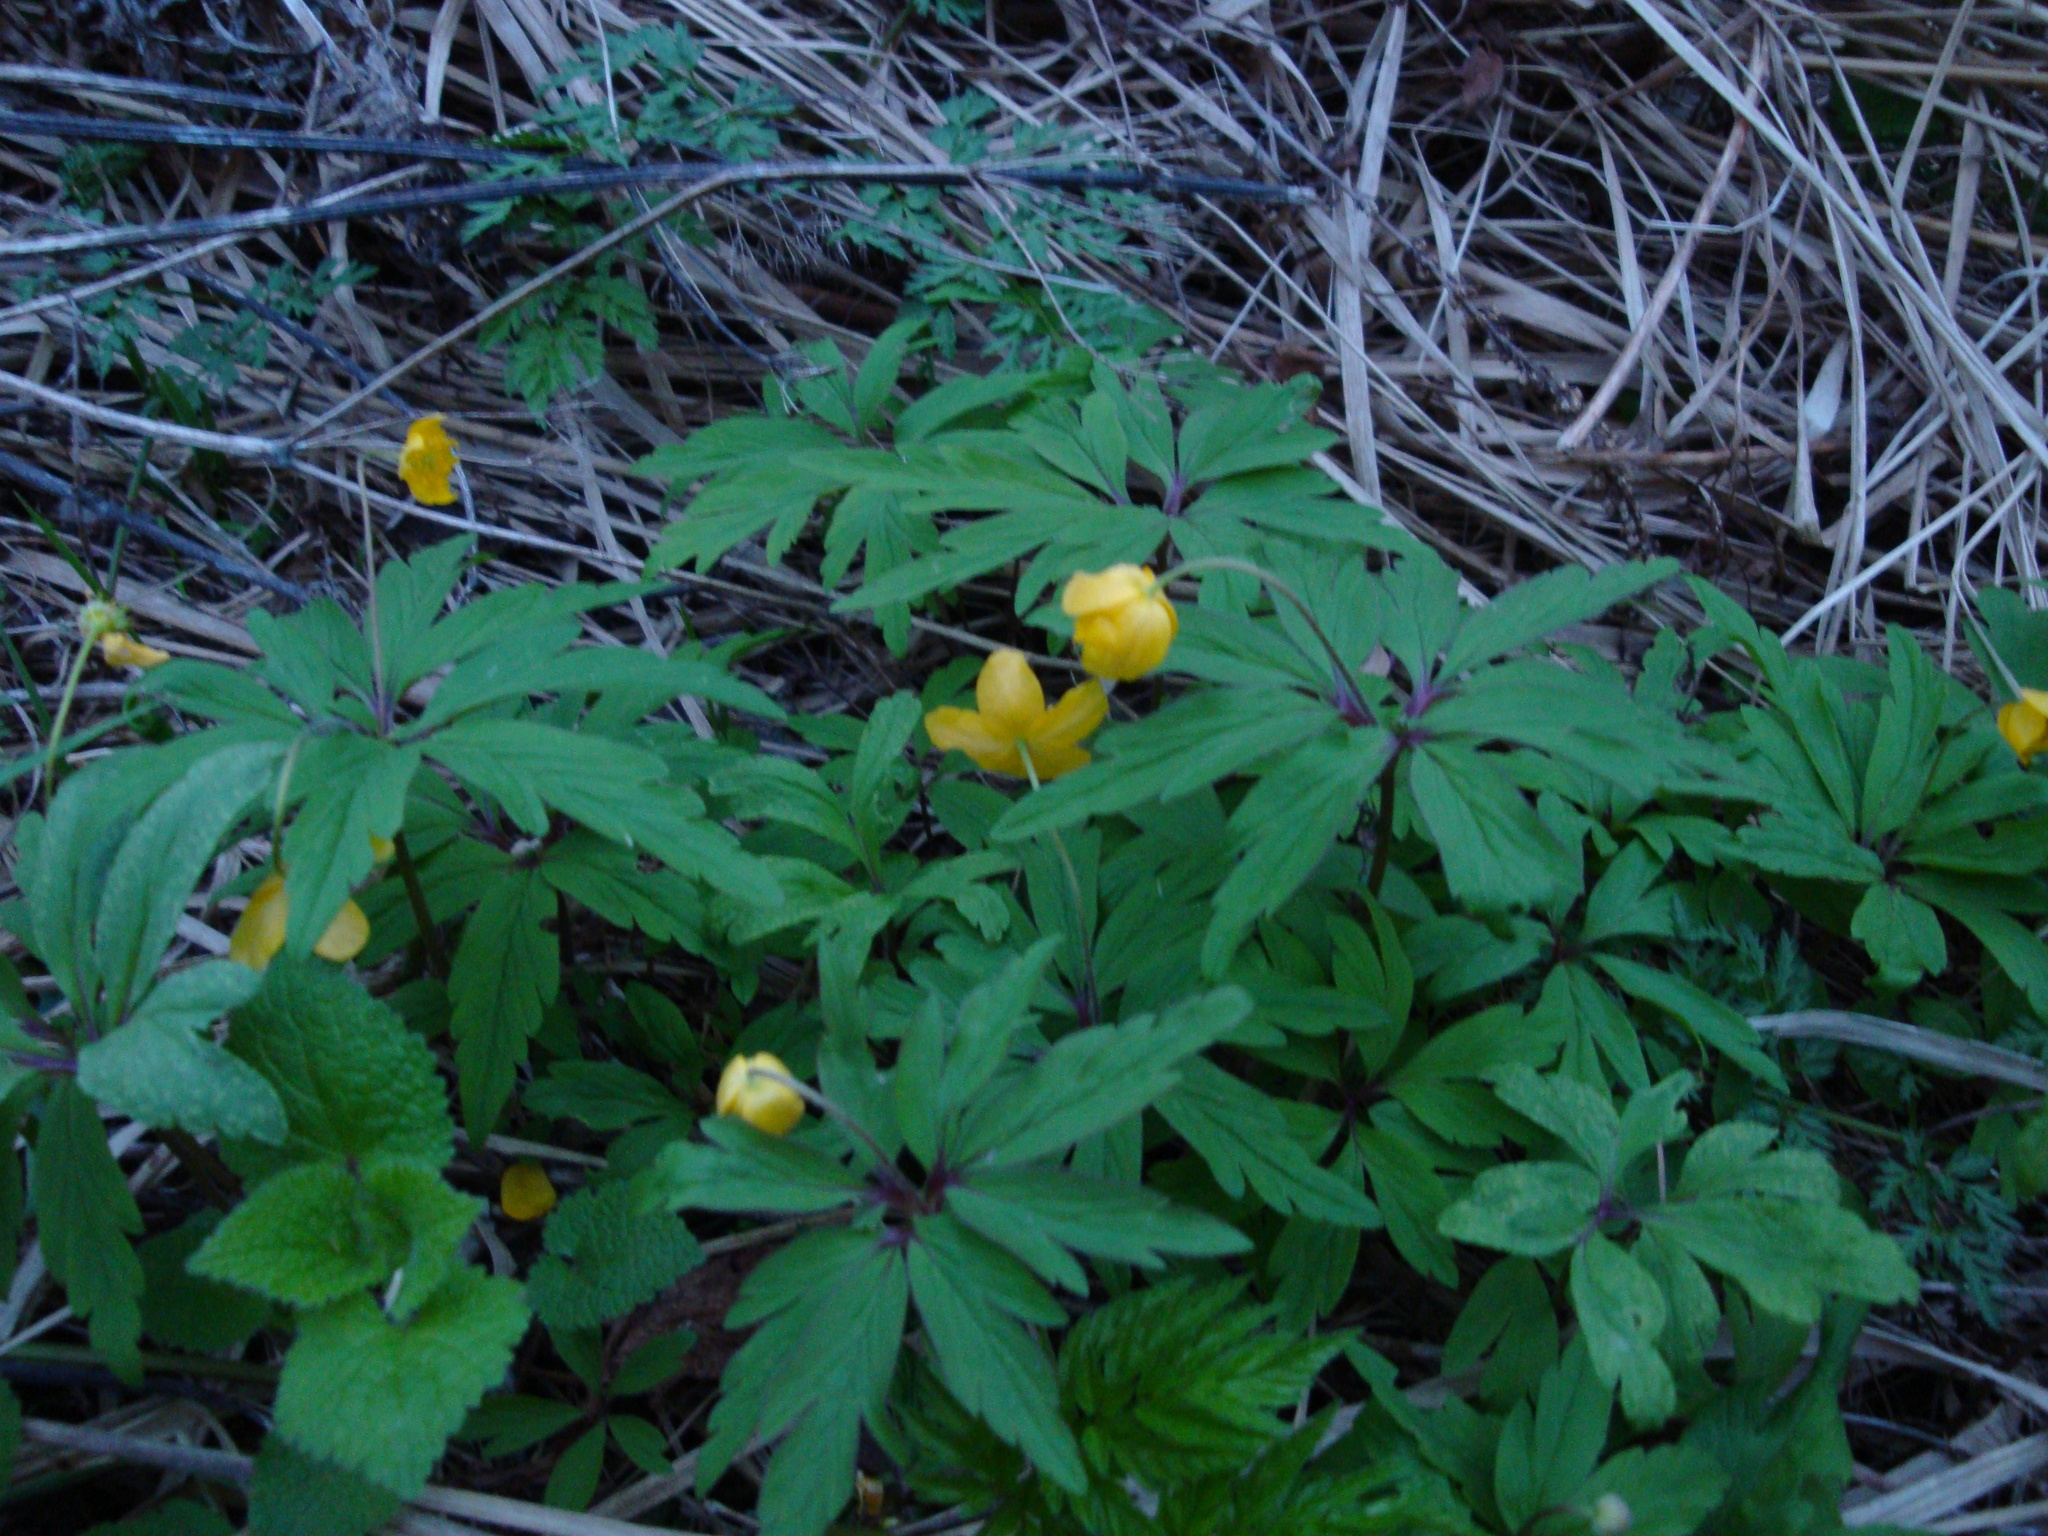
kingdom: Plantae
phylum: Tracheophyta
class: Magnoliopsida
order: Ranunculales
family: Ranunculaceae
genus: Anemone
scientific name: Anemone ranunculoides
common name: Yellow anemone
